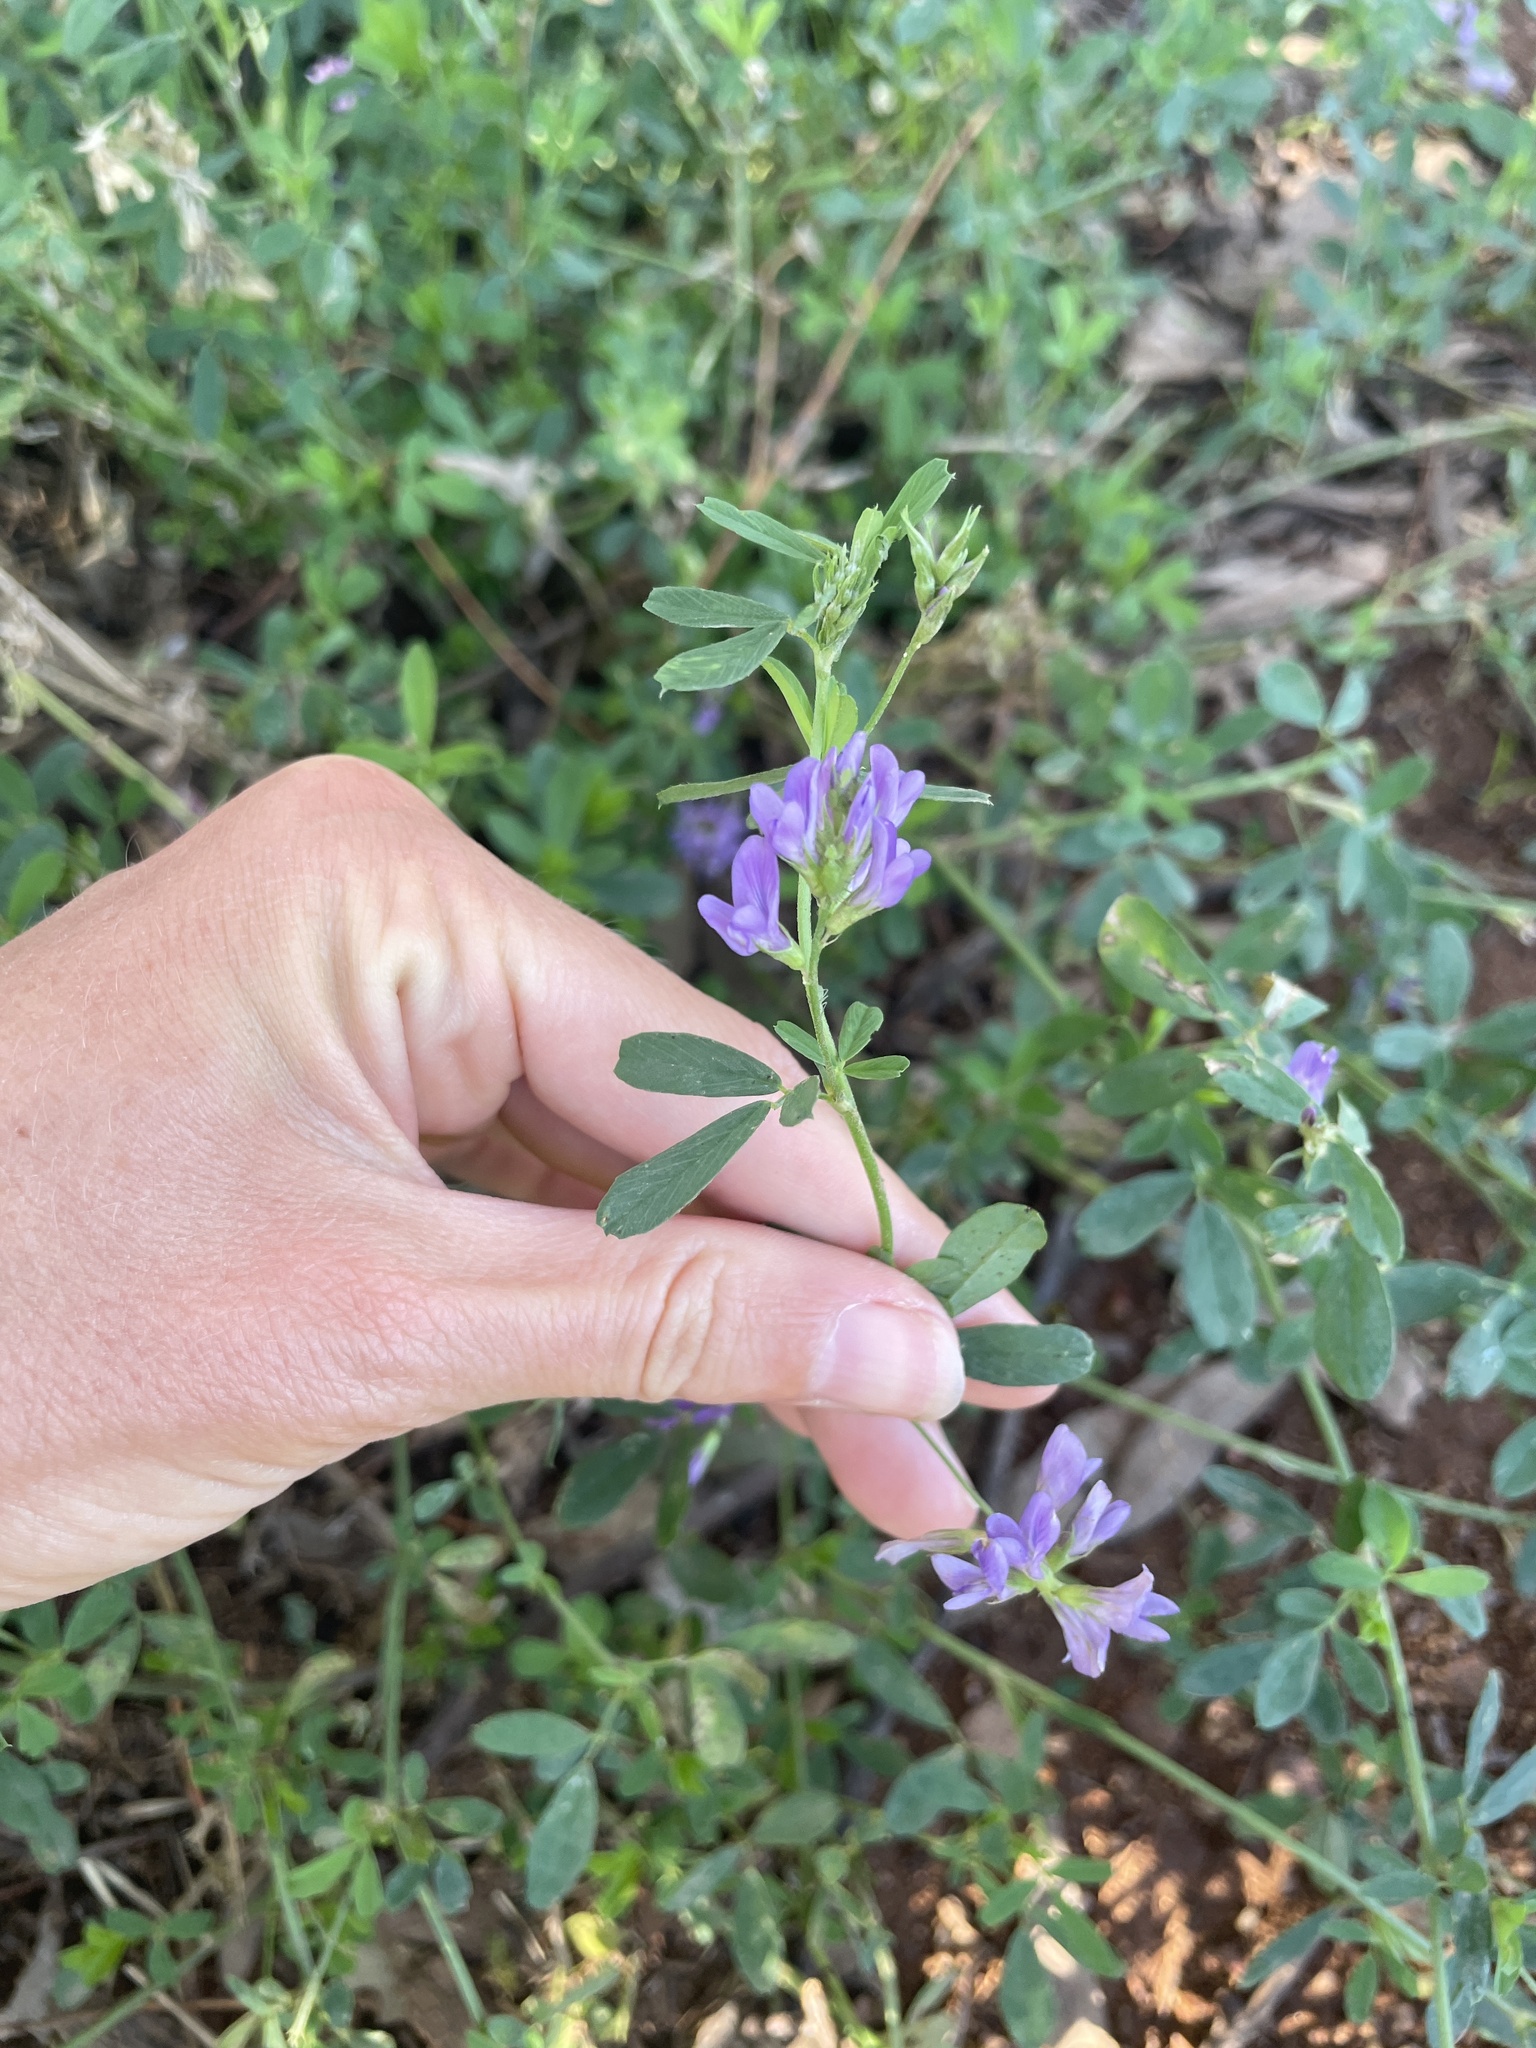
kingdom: Plantae
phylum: Tracheophyta
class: Magnoliopsida
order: Fabales
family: Fabaceae
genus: Medicago
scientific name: Medicago sativa
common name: Alfalfa
